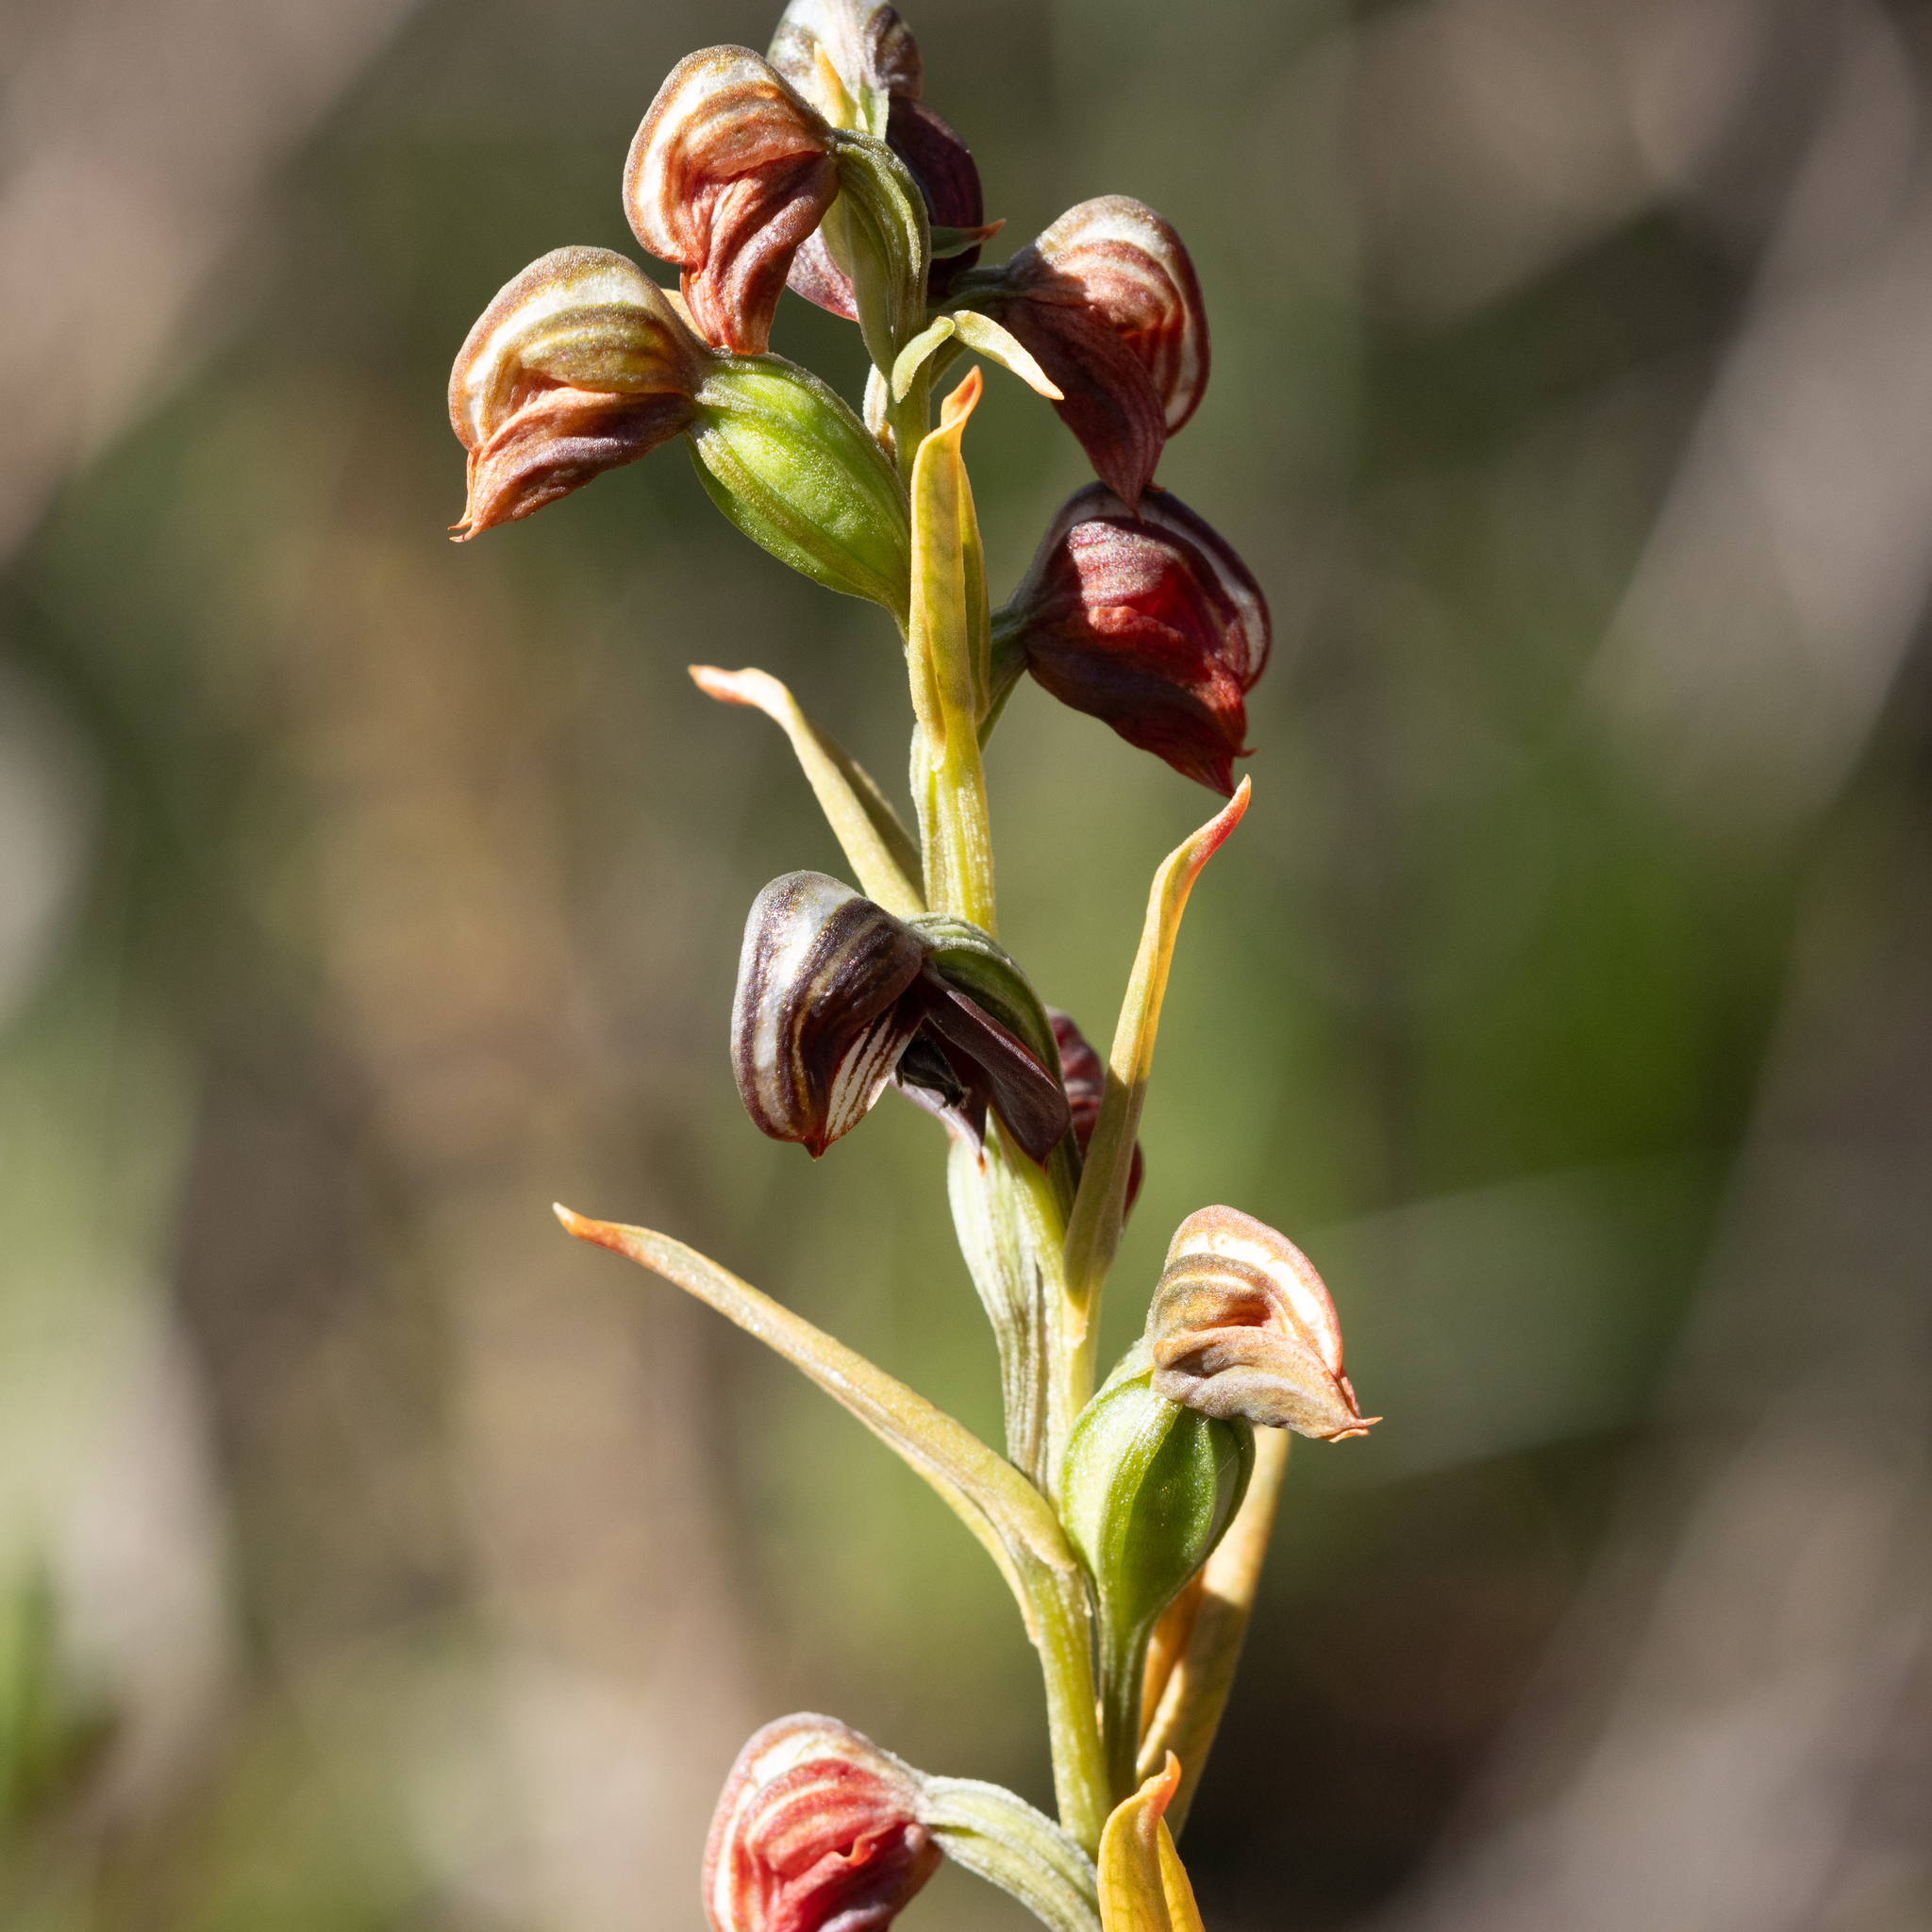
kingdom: Plantae
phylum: Tracheophyta
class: Liliopsida
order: Asparagales
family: Orchidaceae
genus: Pterostylis
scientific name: Pterostylis sanguinea
